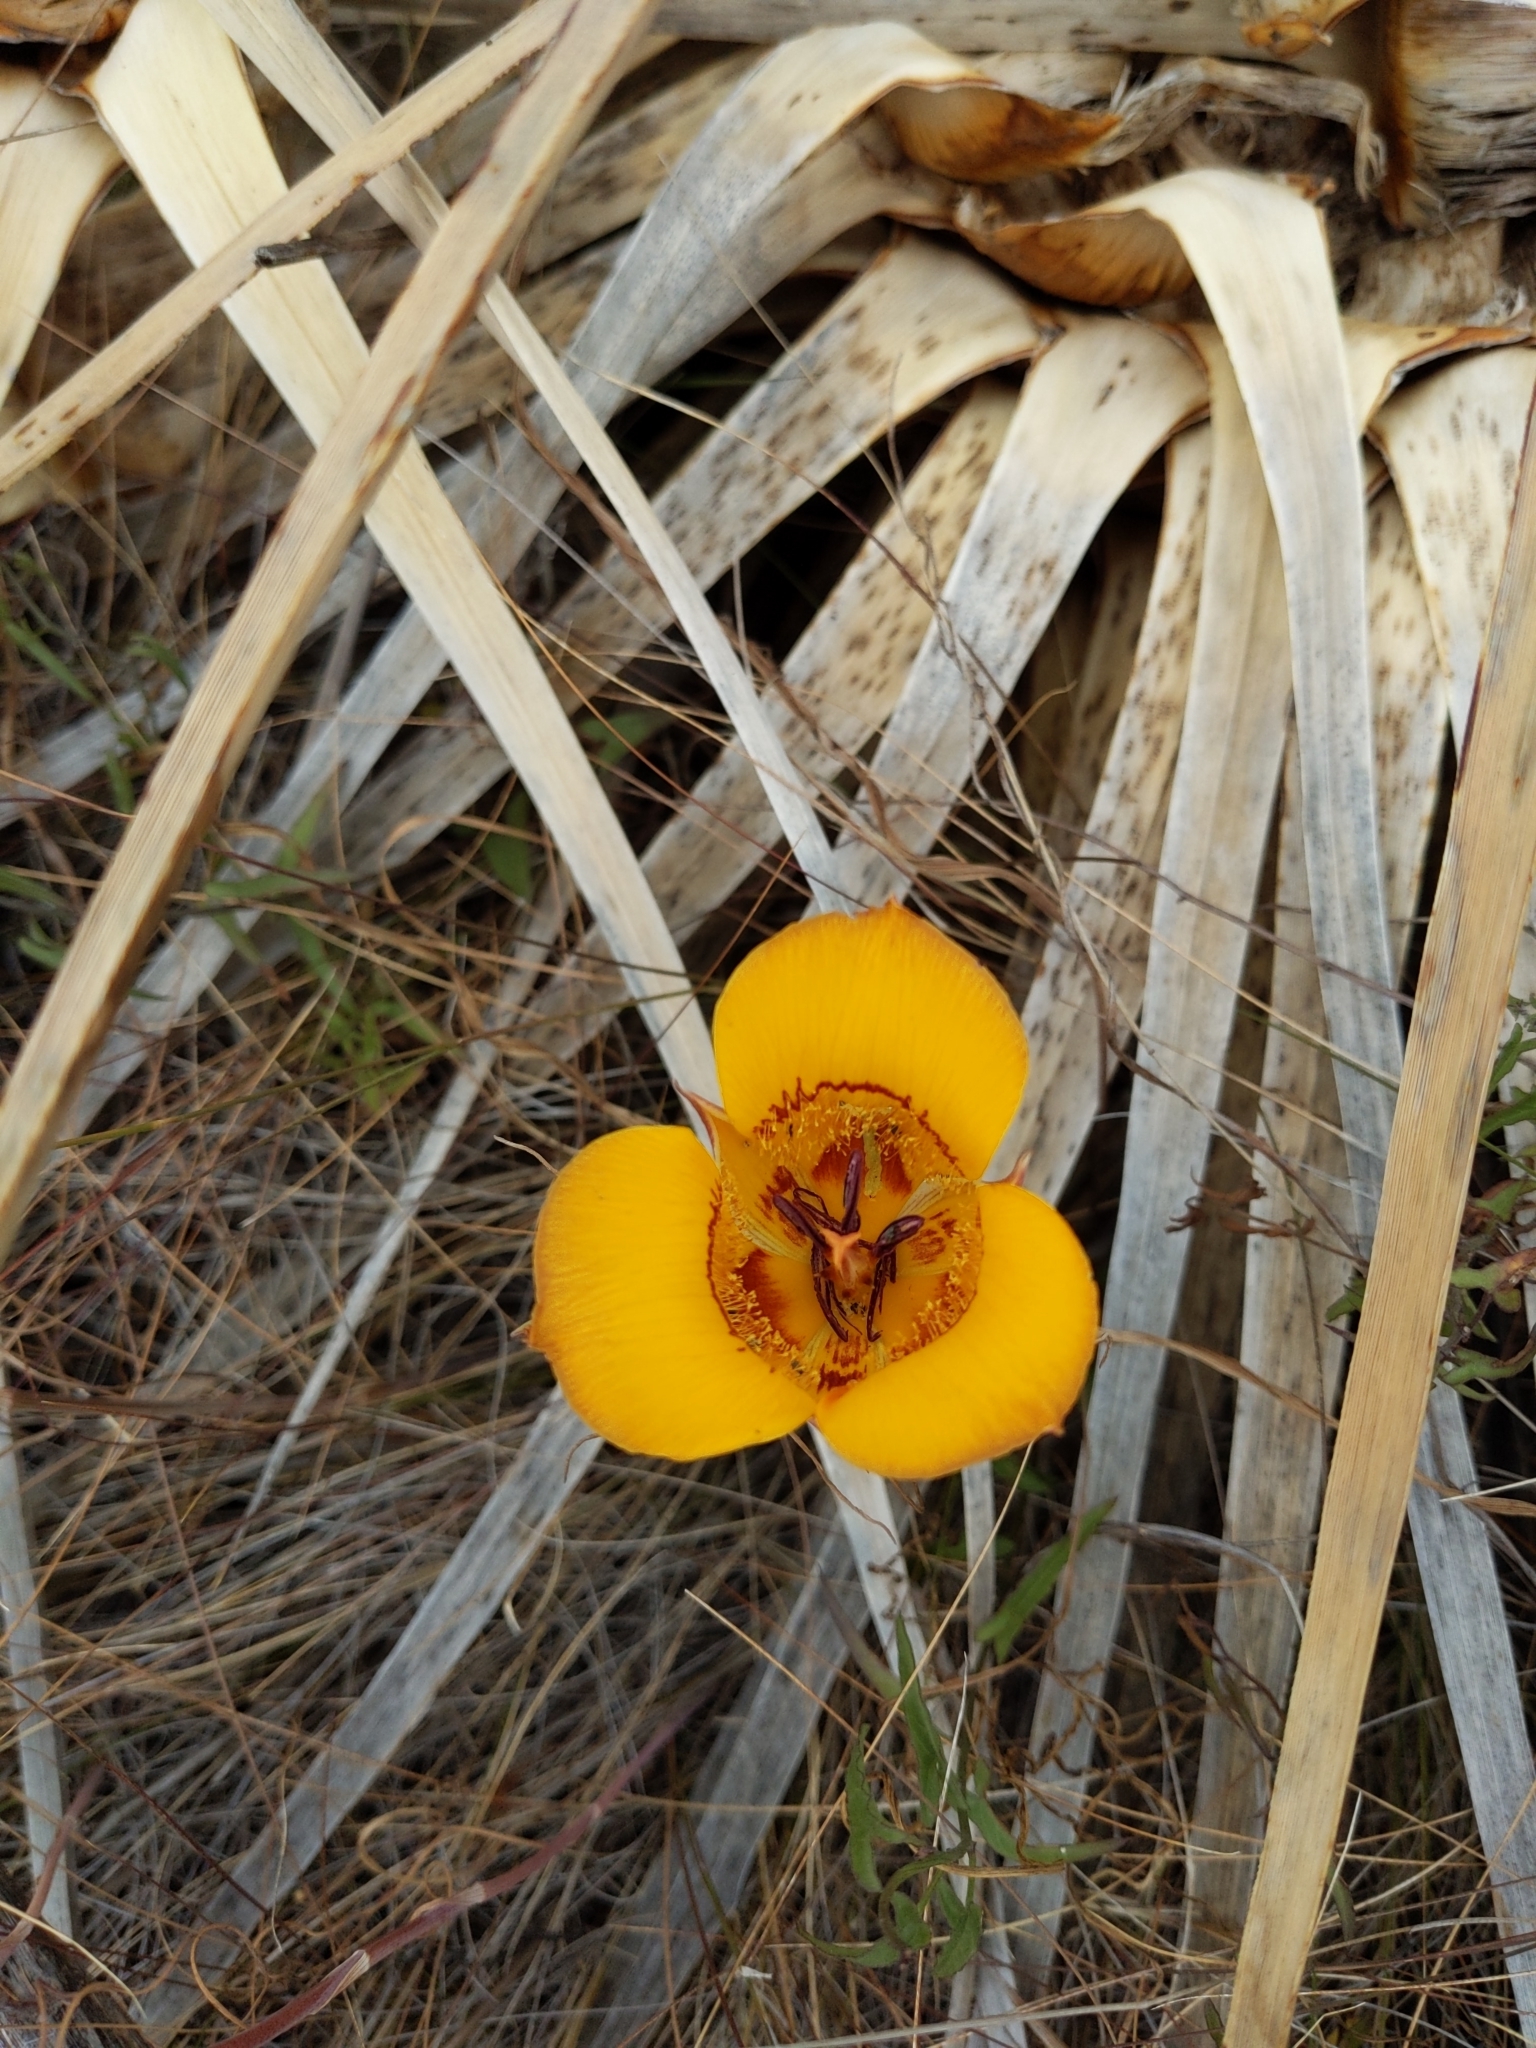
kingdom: Plantae
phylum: Tracheophyta
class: Liliopsida
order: Liliales
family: Liliaceae
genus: Calochortus
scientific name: Calochortus clavatus
